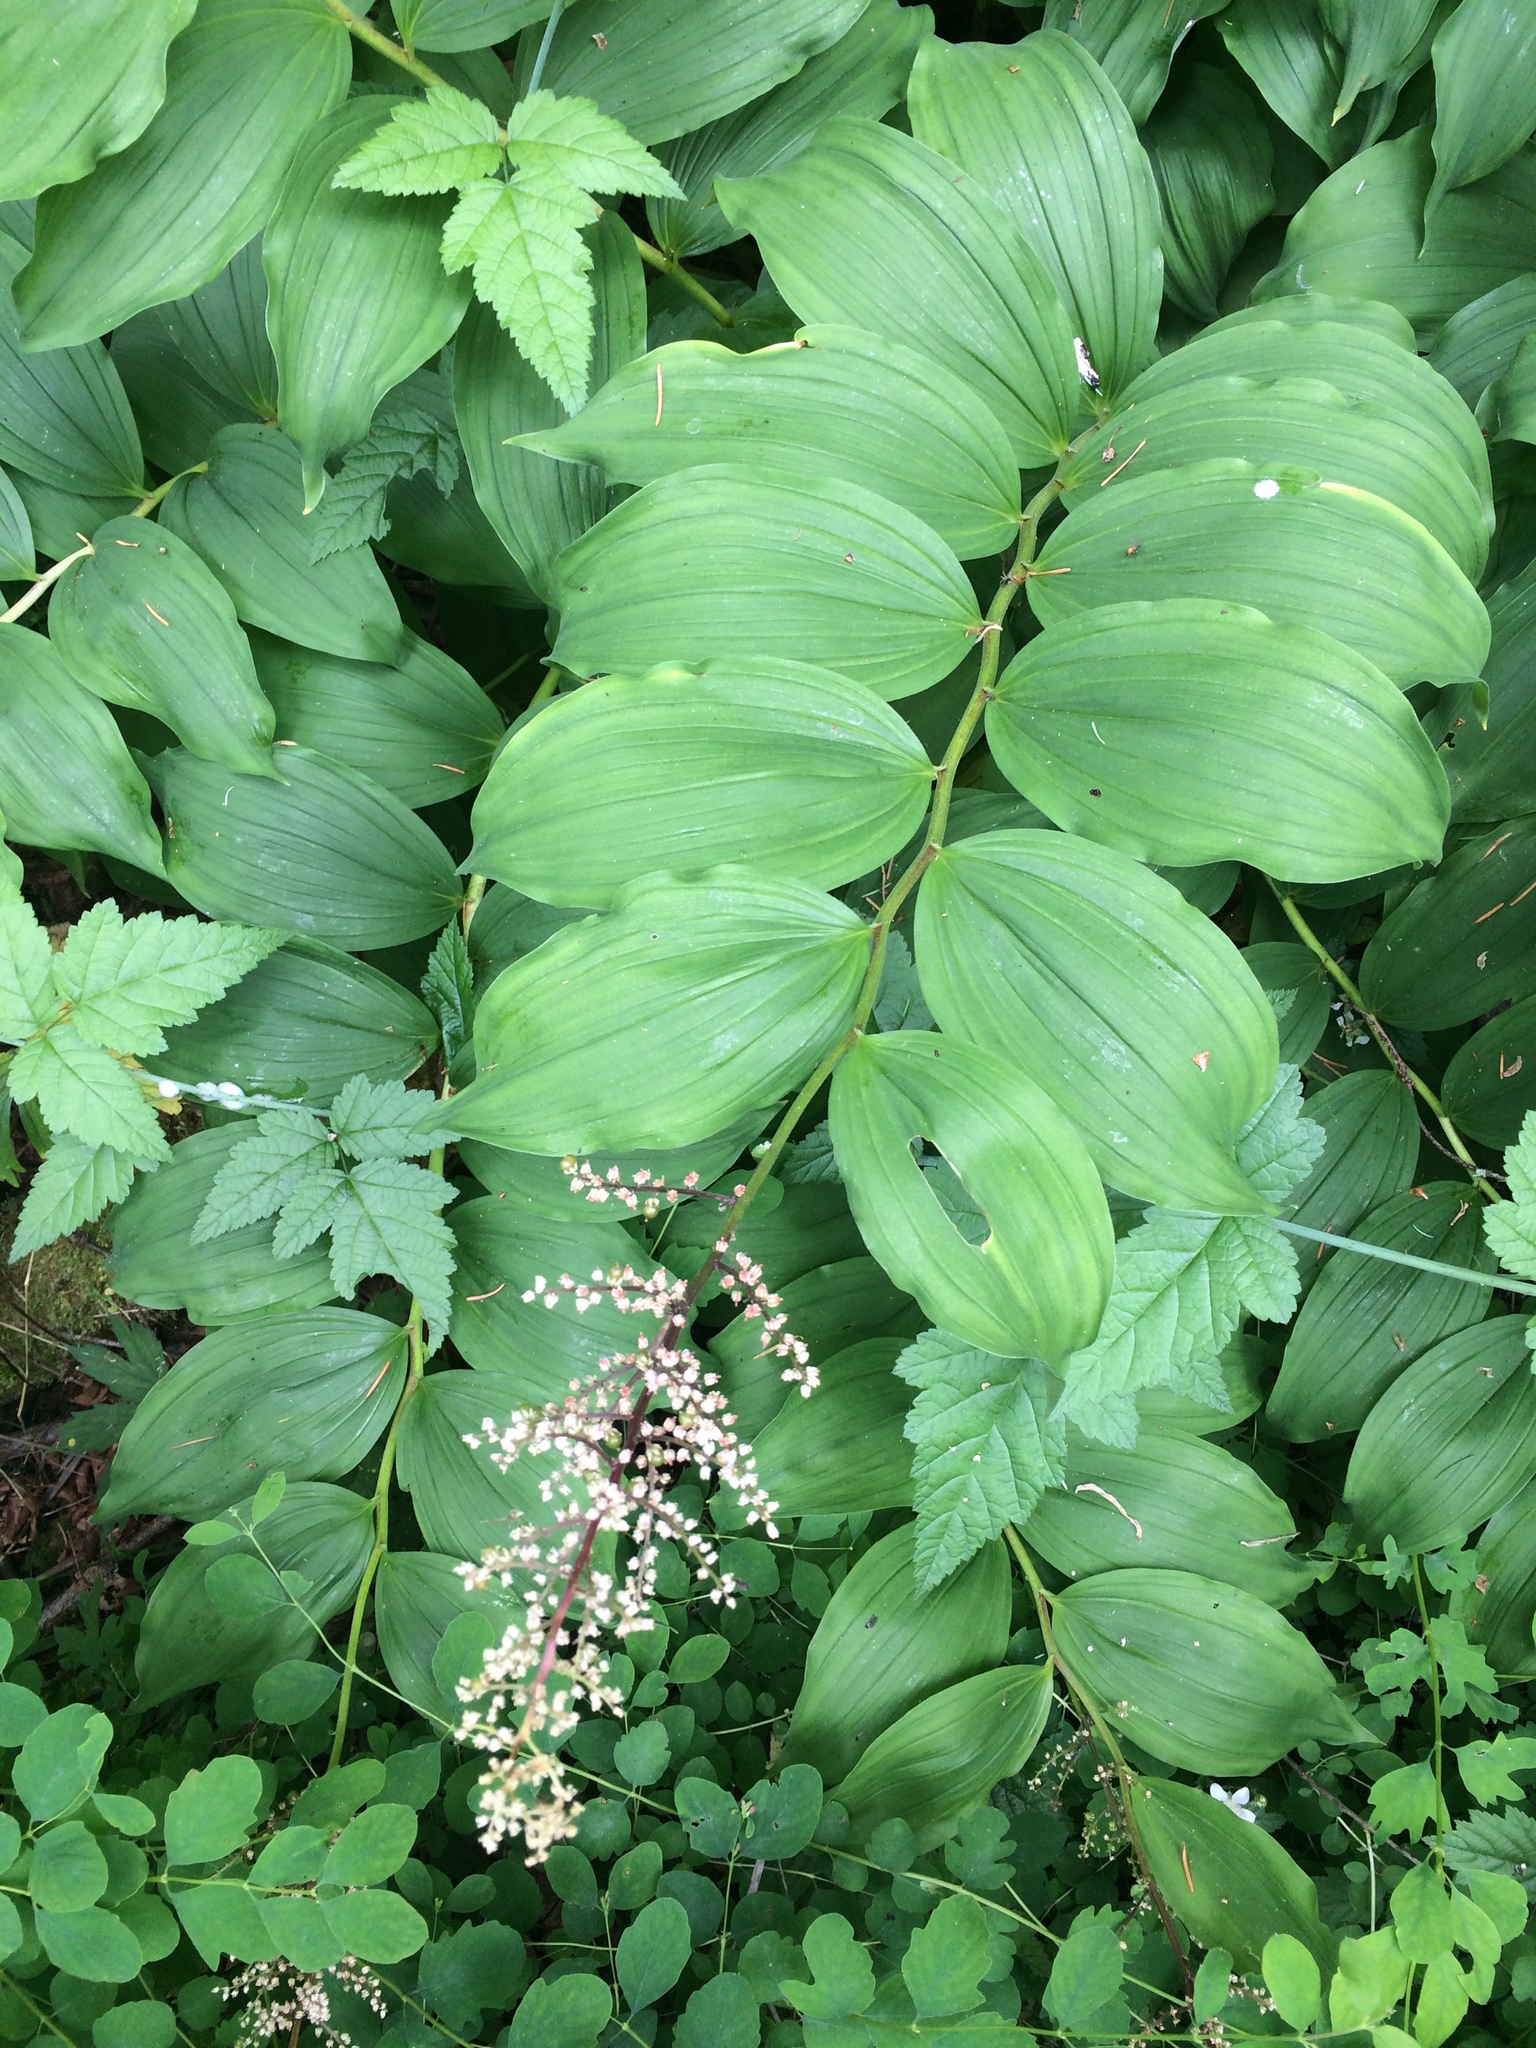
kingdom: Plantae
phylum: Tracheophyta
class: Liliopsida
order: Asparagales
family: Asparagaceae
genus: Maianthemum
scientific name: Maianthemum racemosum
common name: False spikenard
